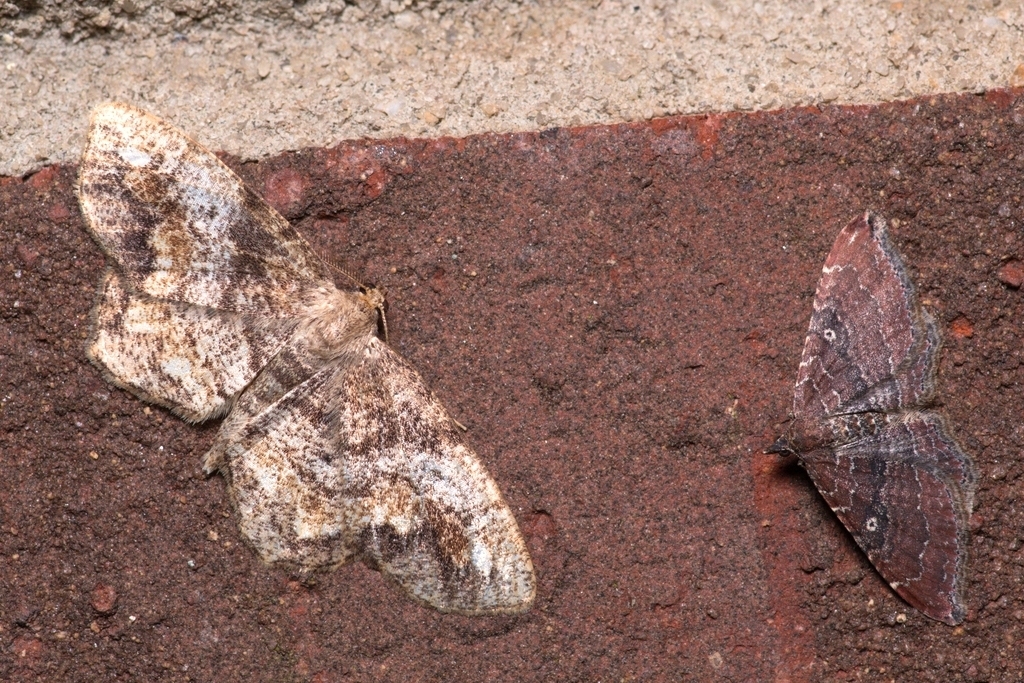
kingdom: Animalia
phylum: Arthropoda
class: Insecta
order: Lepidoptera
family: Geometridae
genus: Orthonama
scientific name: Orthonama obstipata
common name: The gem
